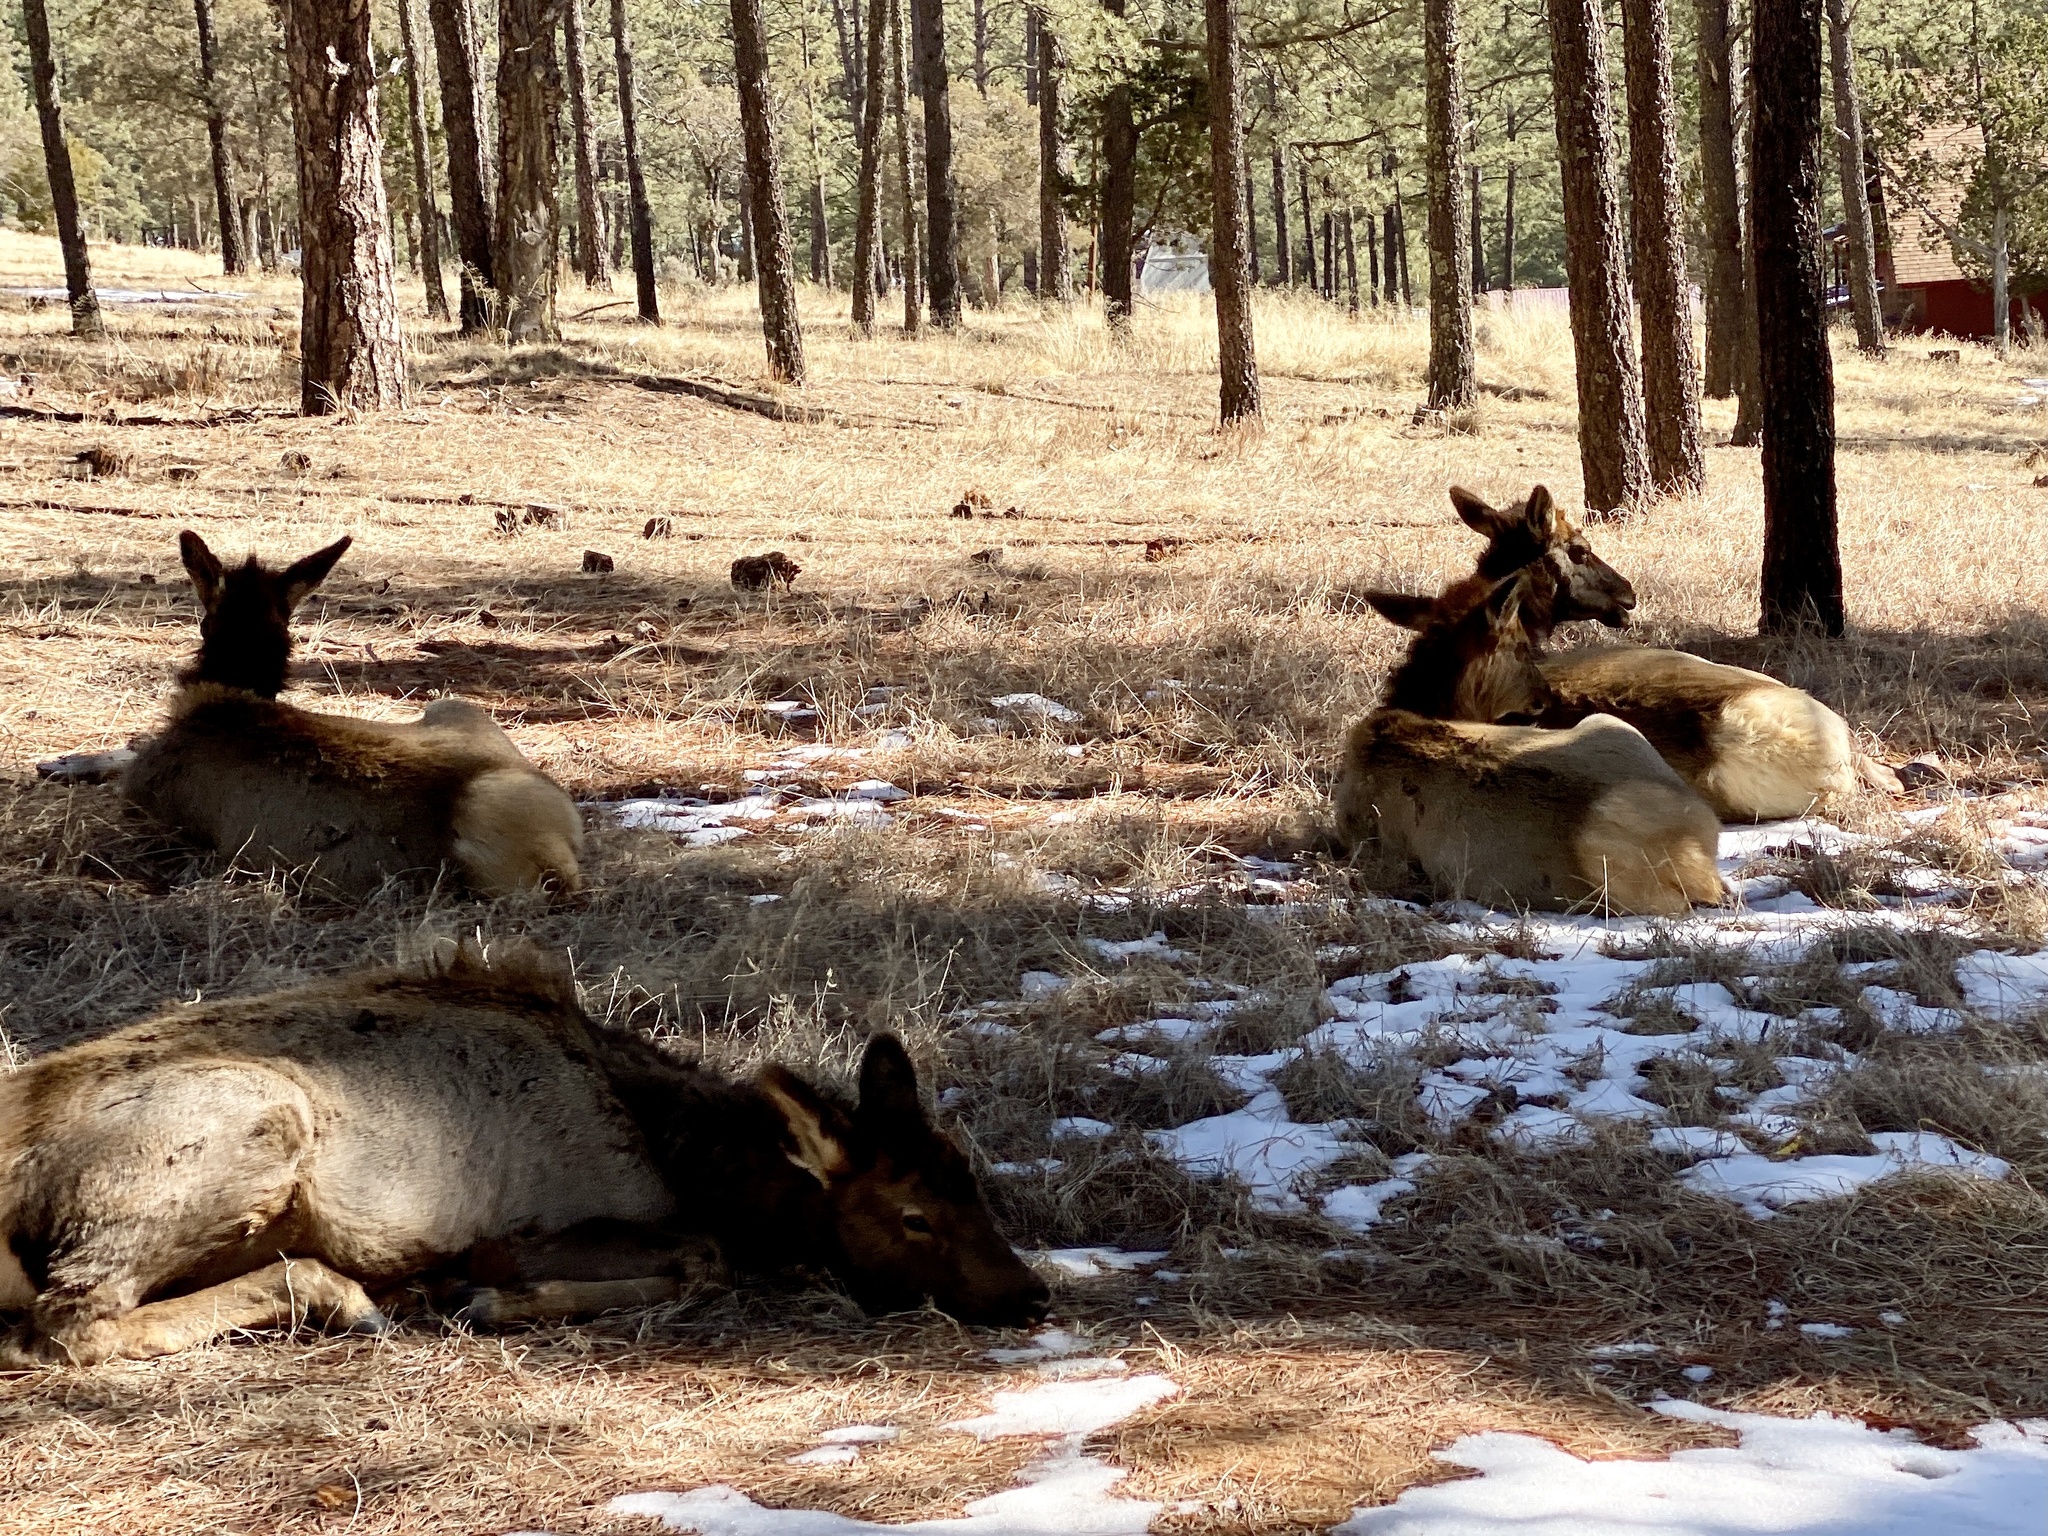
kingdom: Animalia
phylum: Chordata
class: Mammalia
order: Artiodactyla
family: Cervidae
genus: Cervus
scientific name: Cervus elaphus
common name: Red deer
